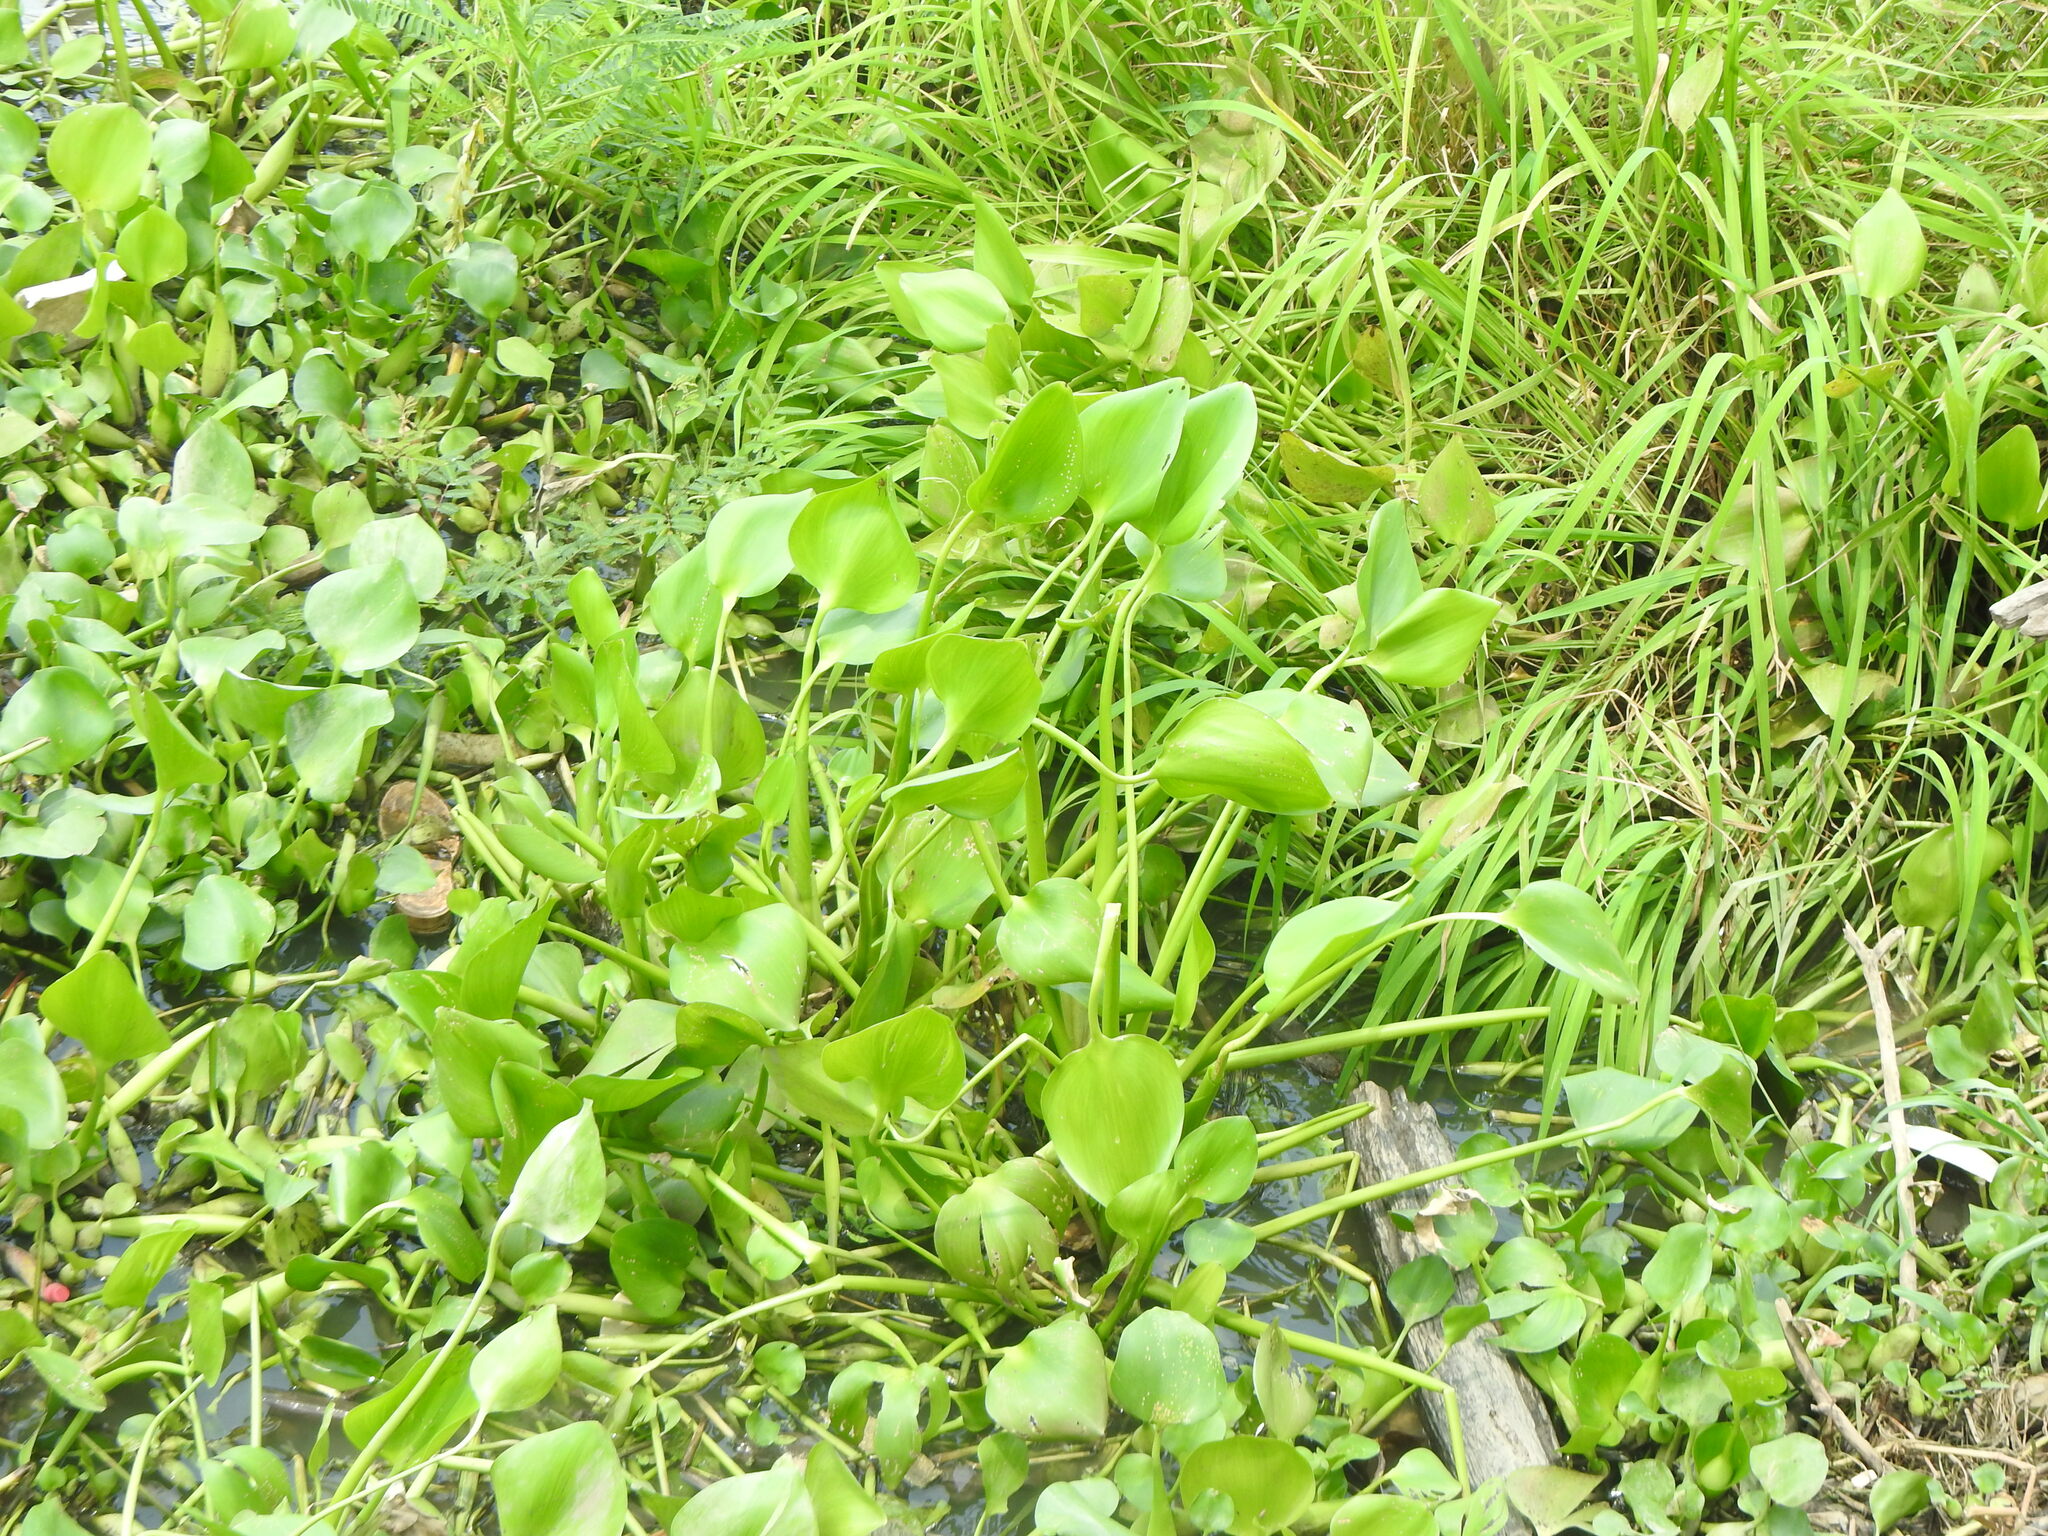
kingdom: Plantae
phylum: Tracheophyta
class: Liliopsida
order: Commelinales
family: Pontederiaceae
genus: Pontederia
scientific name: Pontederia crassipes
